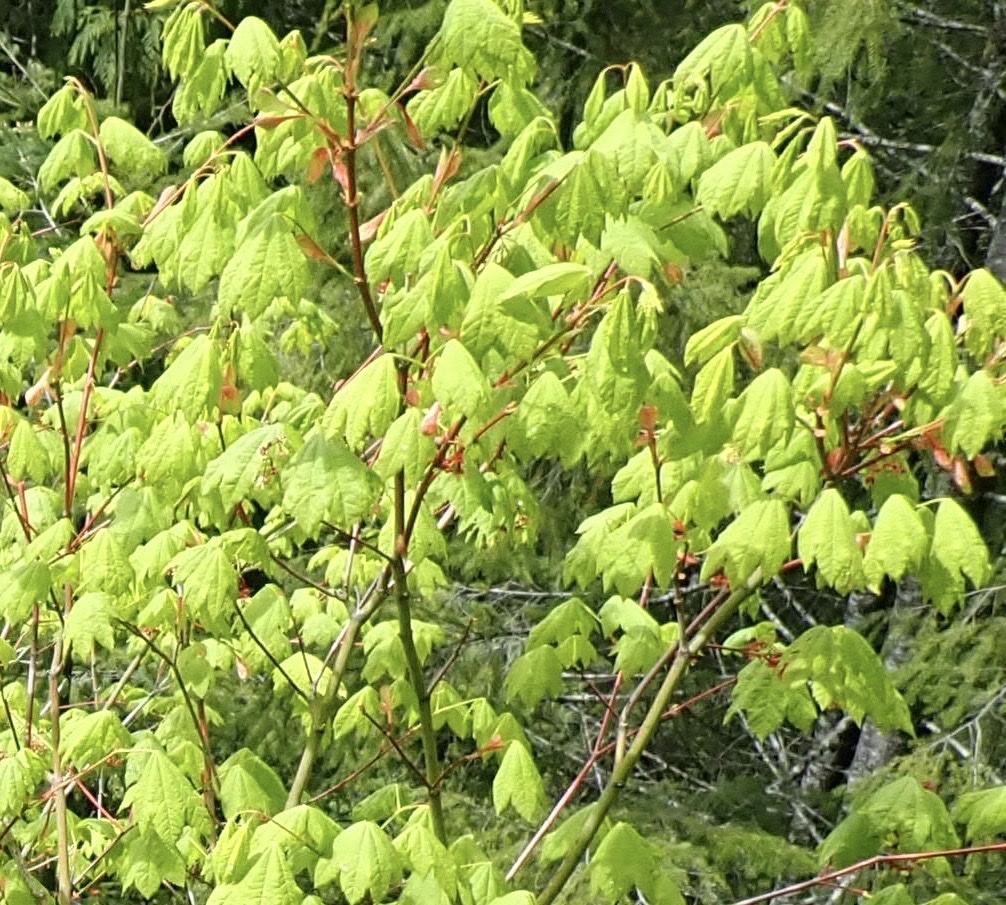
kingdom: Plantae
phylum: Tracheophyta
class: Magnoliopsida
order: Sapindales
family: Sapindaceae
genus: Acer
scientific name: Acer circinatum
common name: Vine maple
